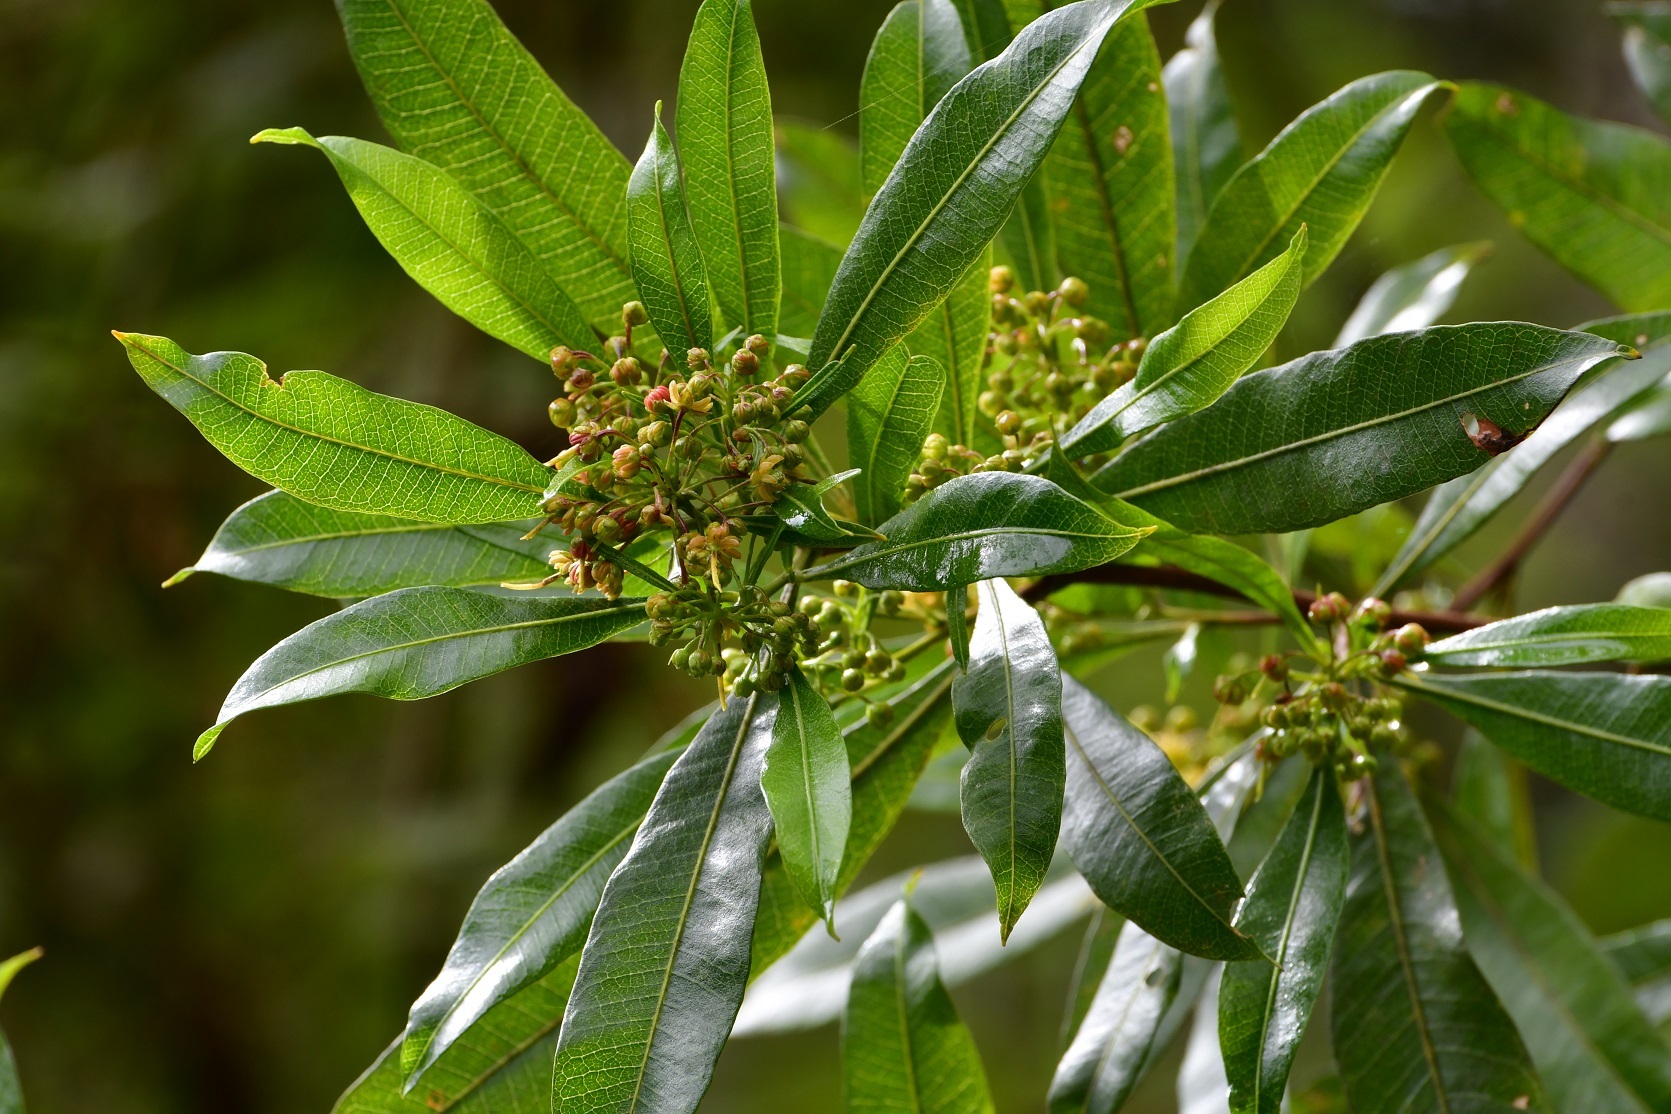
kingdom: Plantae
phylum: Tracheophyta
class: Magnoliopsida
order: Sapindales
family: Sapindaceae
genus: Dodonaea
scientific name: Dodonaea viscosa
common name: Hopbush
